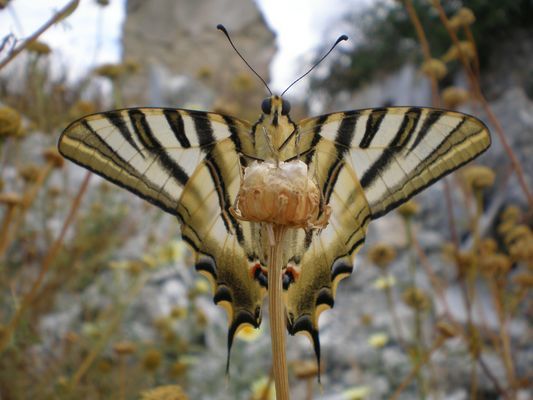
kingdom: Animalia
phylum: Arthropoda
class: Insecta
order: Lepidoptera
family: Papilionidae
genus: Iphiclides
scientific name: Iphiclides feisthamelii
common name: Iberian scarce swallowtail
